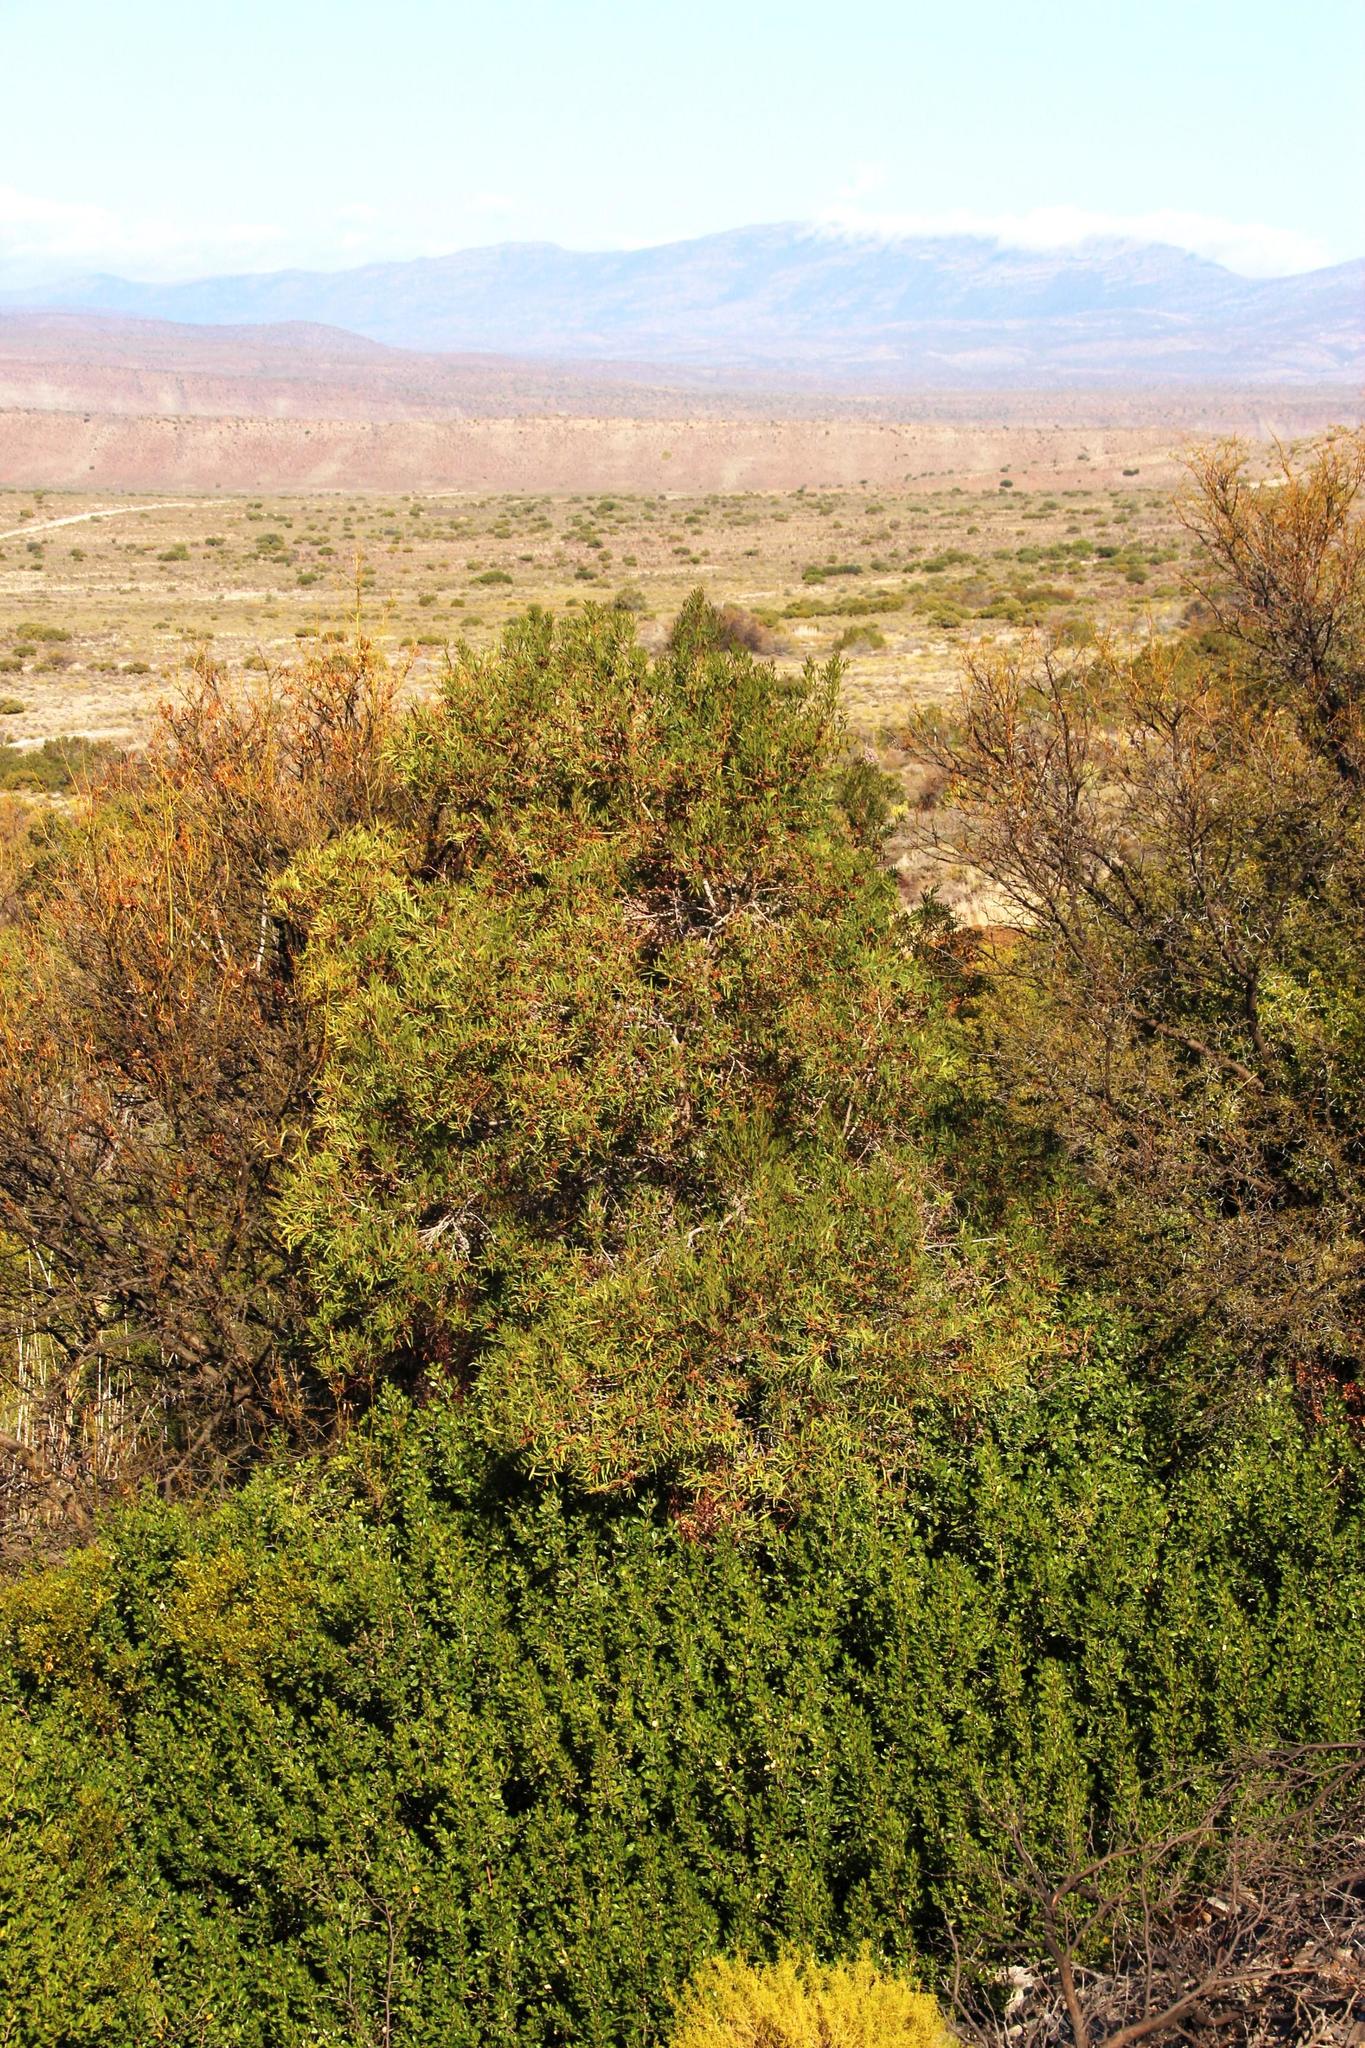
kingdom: Plantae
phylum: Tracheophyta
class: Magnoliopsida
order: Fabales
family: Fabaceae
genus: Acacia
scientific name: Acacia cyclops
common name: Coastal wattle
